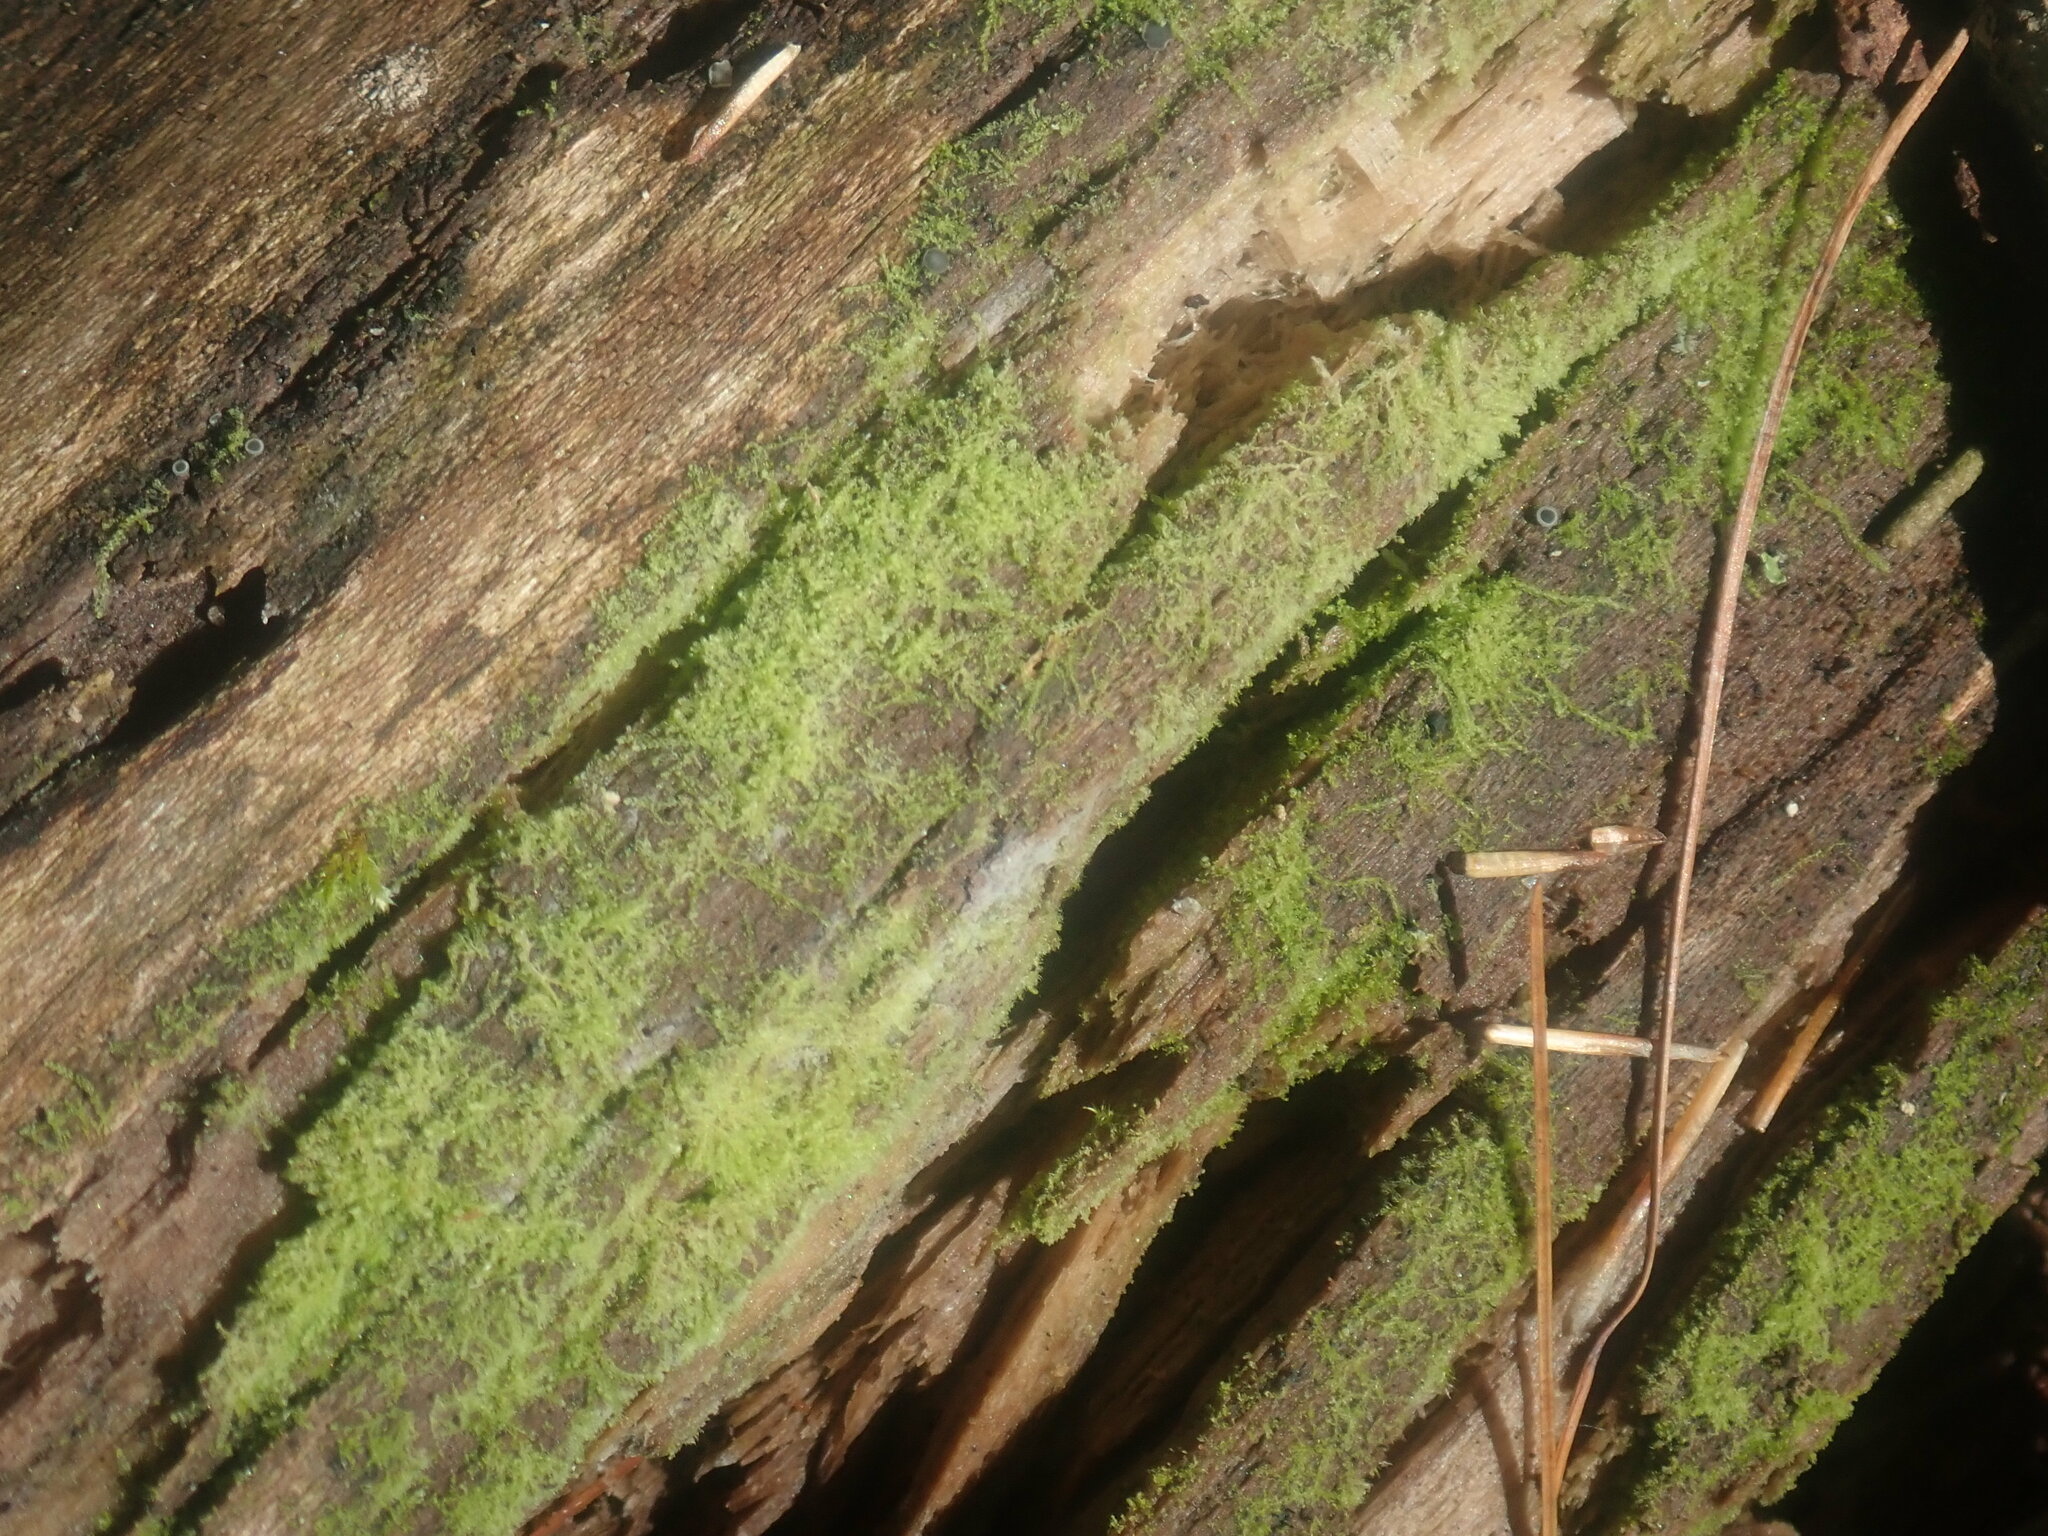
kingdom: Plantae
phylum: Marchantiophyta
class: Jungermanniopsida
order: Jungermanniales
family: Cephaloziaceae
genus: Nowellia
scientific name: Nowellia curvifolia
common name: Wood rustwort
